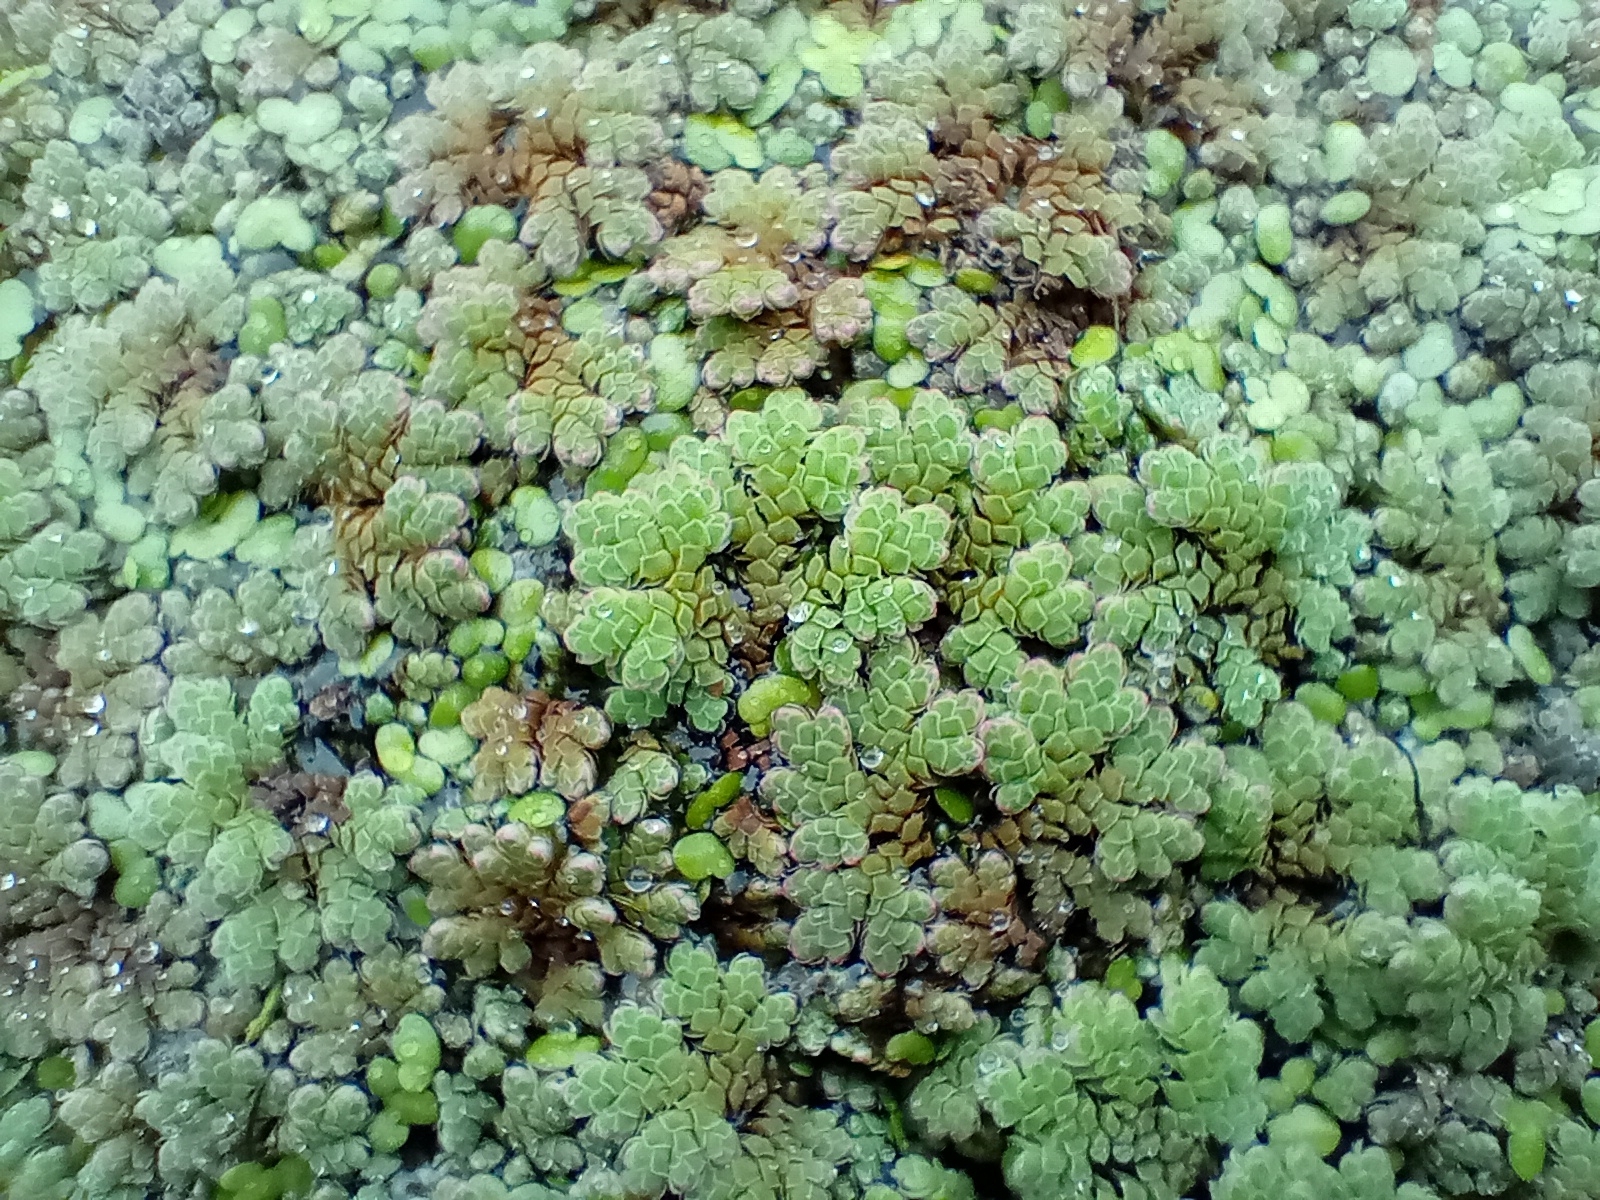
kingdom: Plantae
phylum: Tracheophyta
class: Polypodiopsida
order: Salviniales
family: Salviniaceae
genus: Azolla
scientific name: Azolla rubra
